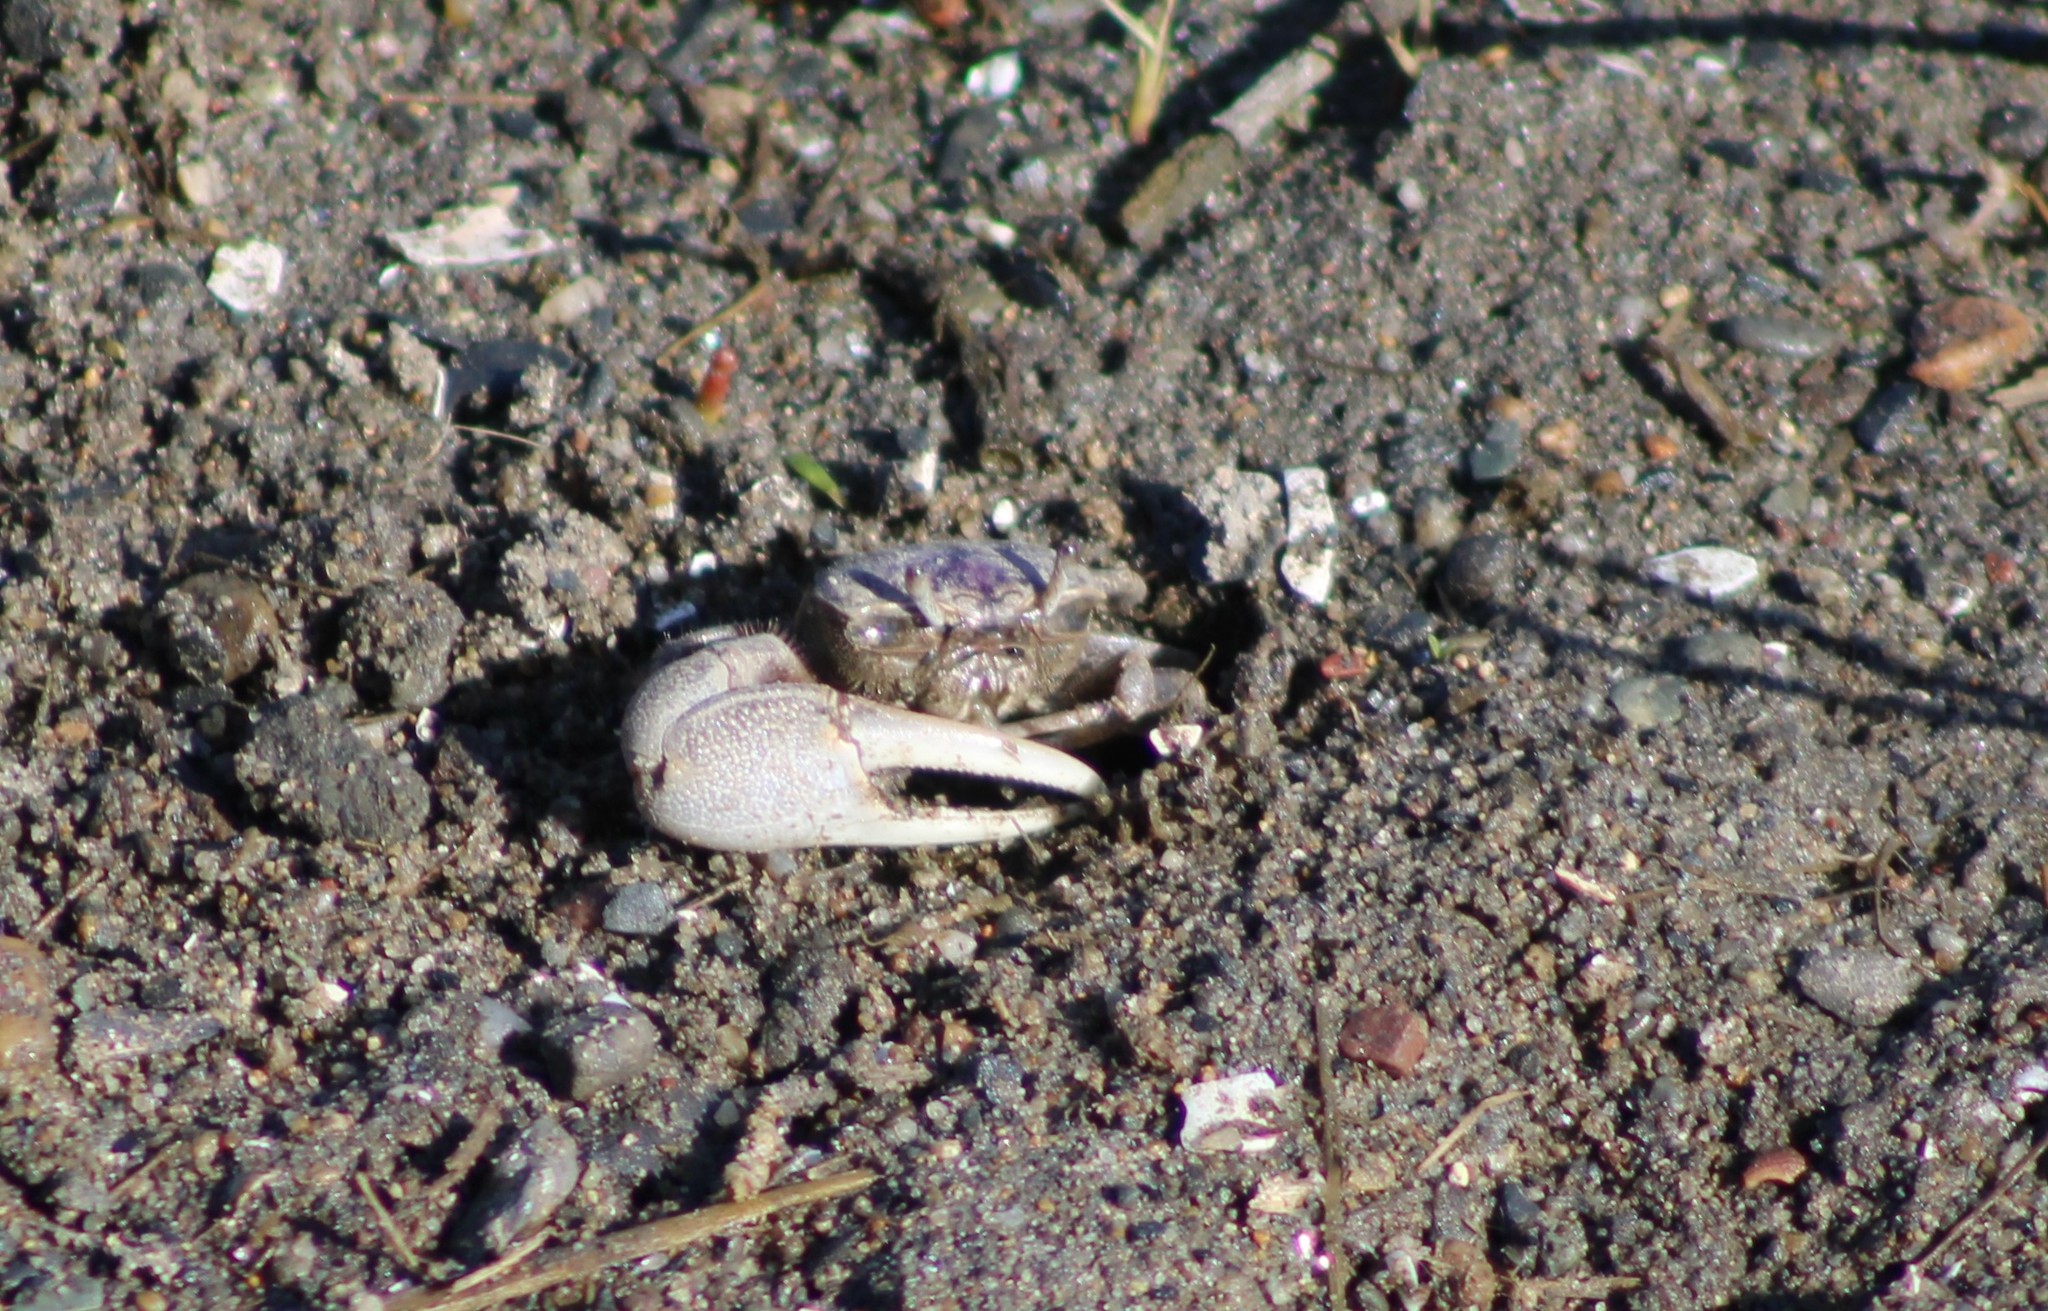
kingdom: Animalia
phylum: Arthropoda
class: Malacostraca
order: Decapoda
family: Ocypodidae
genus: Leptuca
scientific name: Leptuca pugilator
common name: Atlantic sand fiddler crab
